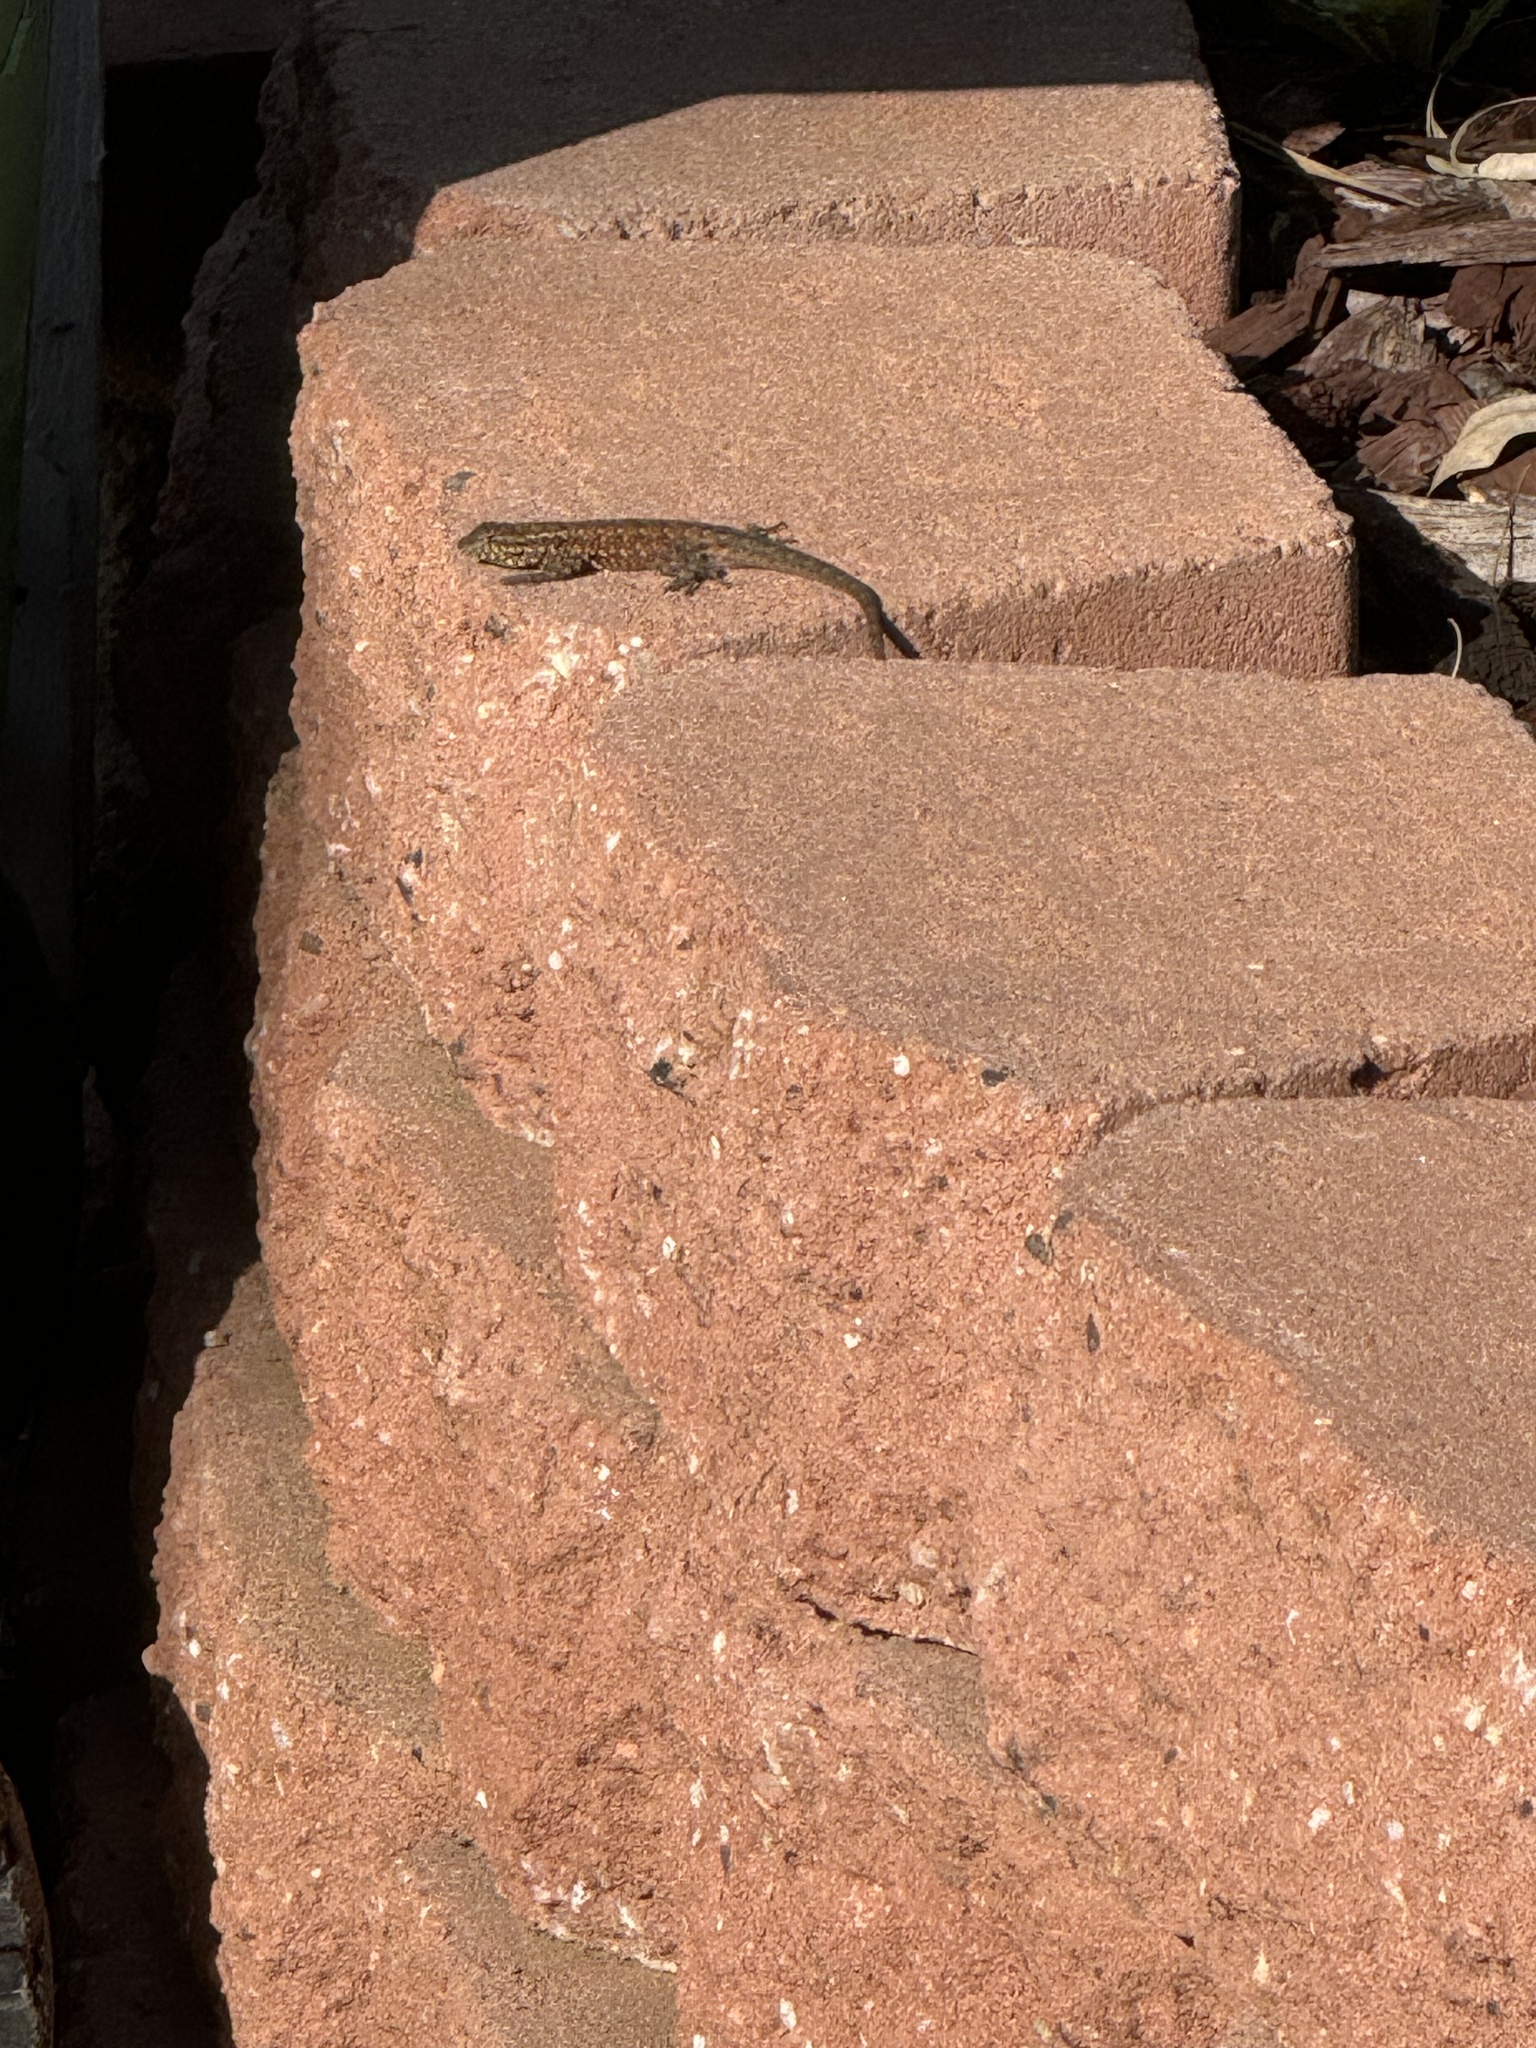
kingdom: Animalia
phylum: Chordata
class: Squamata
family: Phrynosomatidae
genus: Uta
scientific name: Uta stansburiana
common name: Side-blotched lizard
